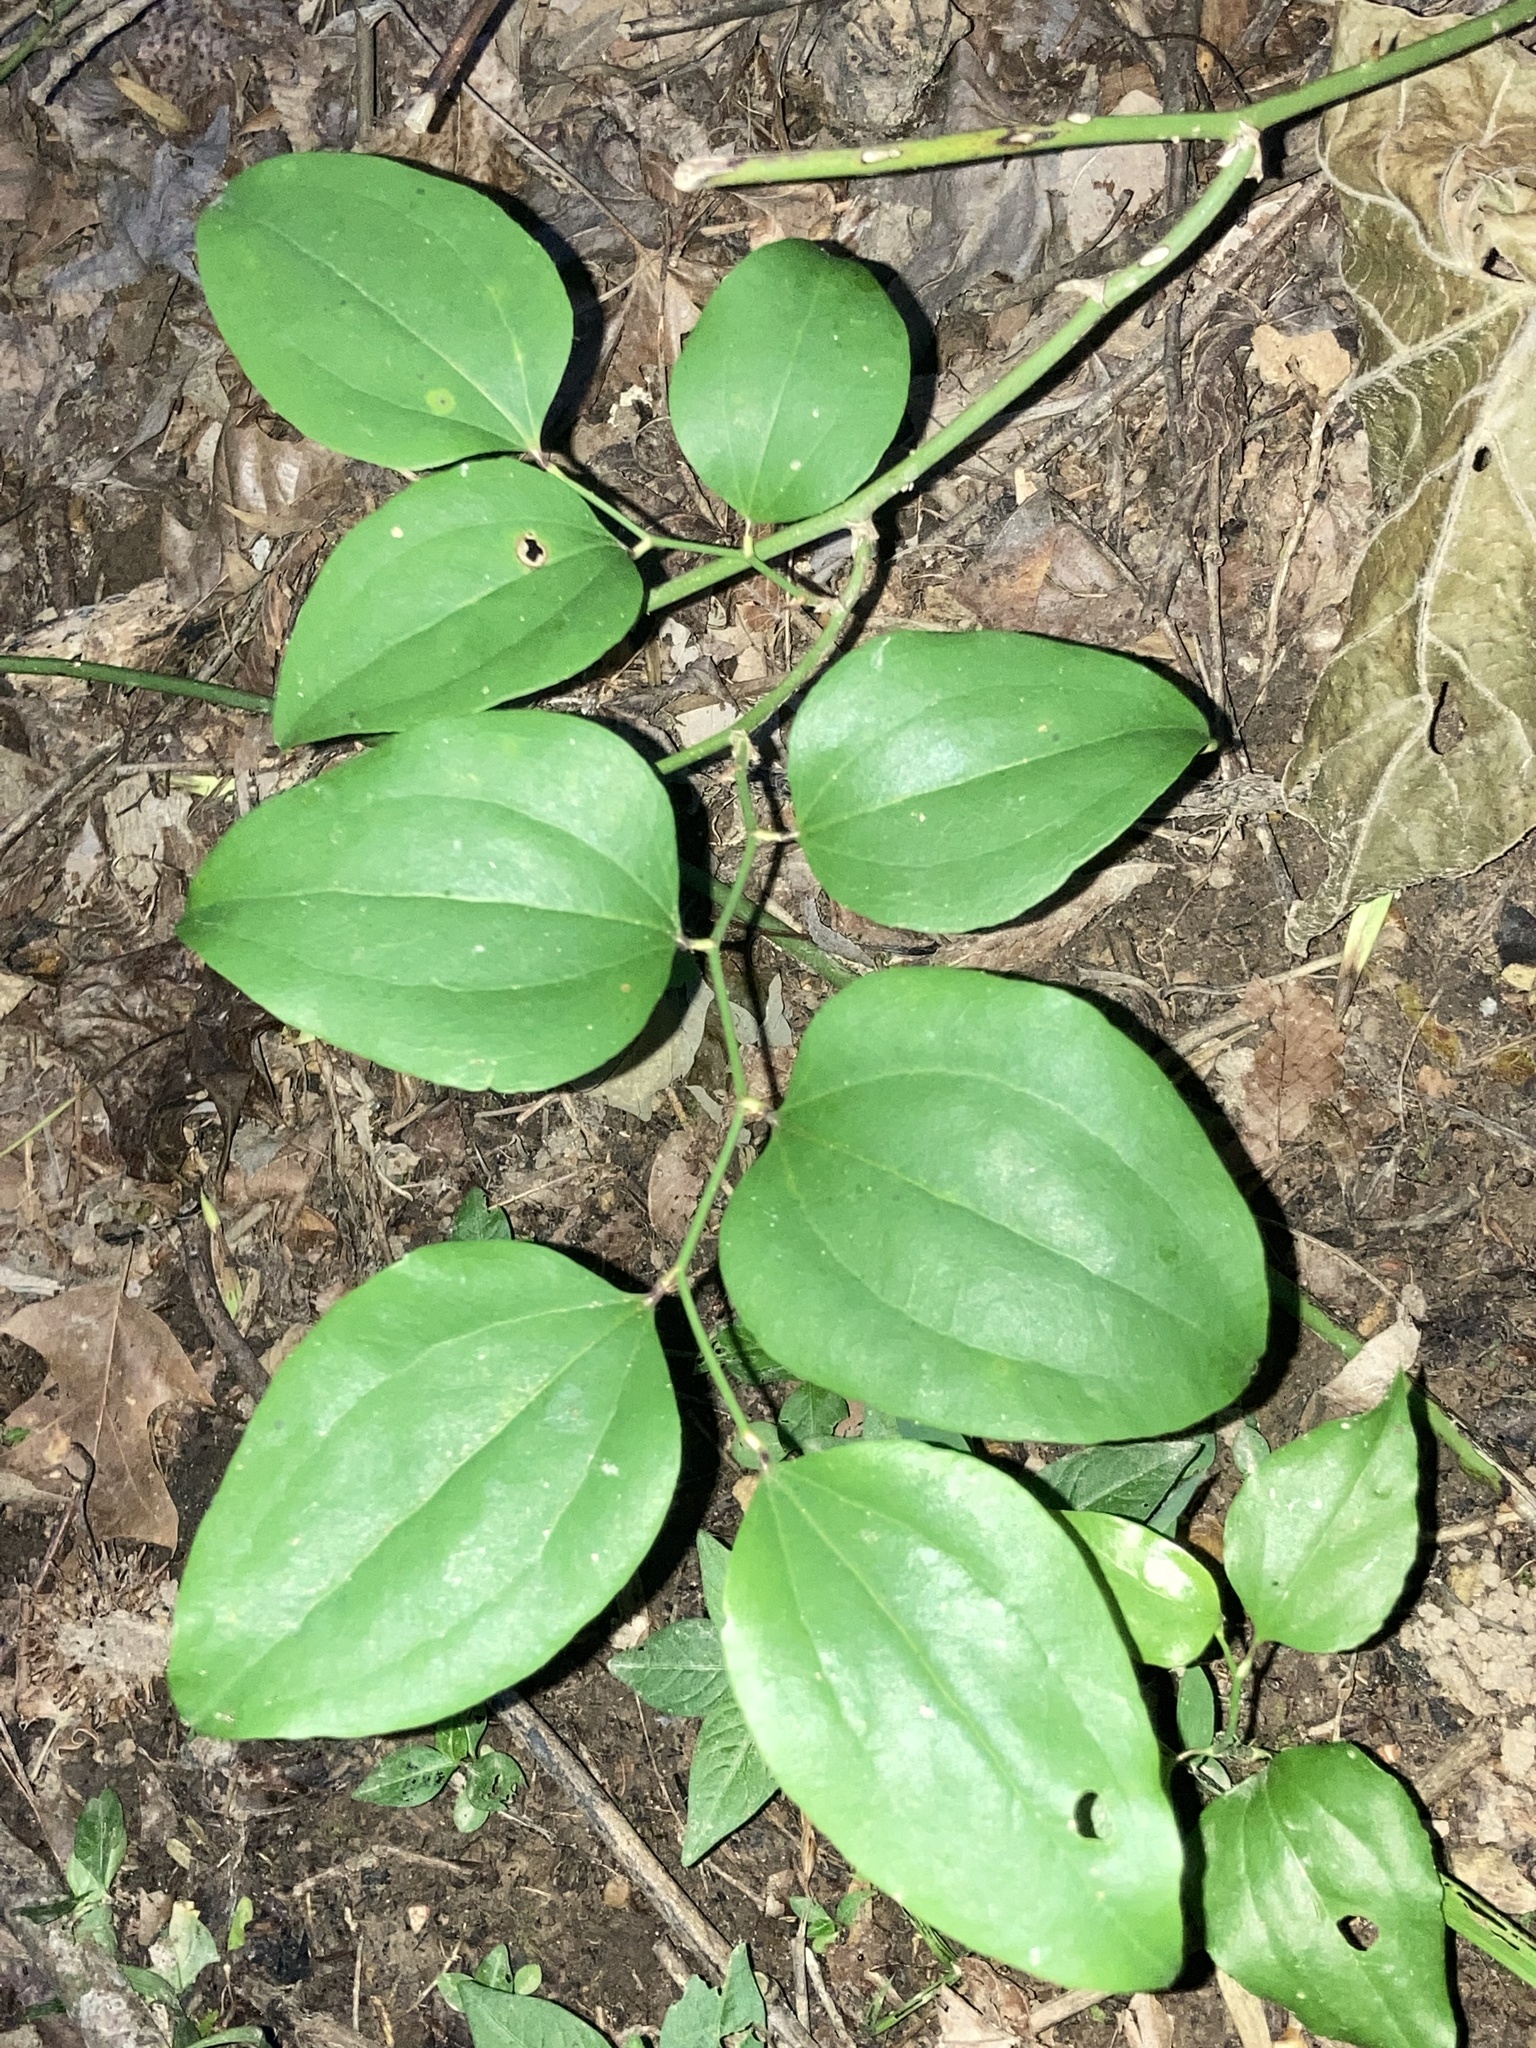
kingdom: Plantae
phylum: Tracheophyta
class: Liliopsida
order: Liliales
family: Smilacaceae
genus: Smilax
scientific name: Smilax rotundifolia
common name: Bullbriar
